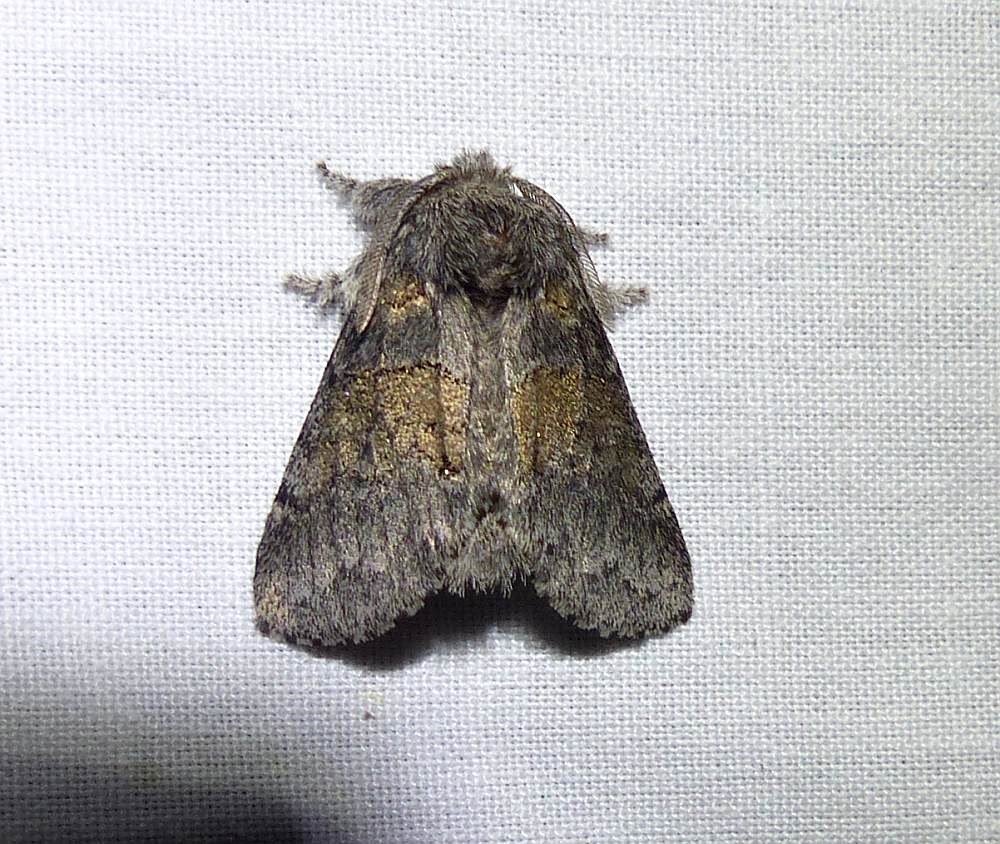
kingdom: Animalia
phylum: Arthropoda
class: Insecta
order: Lepidoptera
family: Notodontidae
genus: Gluphisia
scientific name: Gluphisia septentrionis
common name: Common gluphisia
